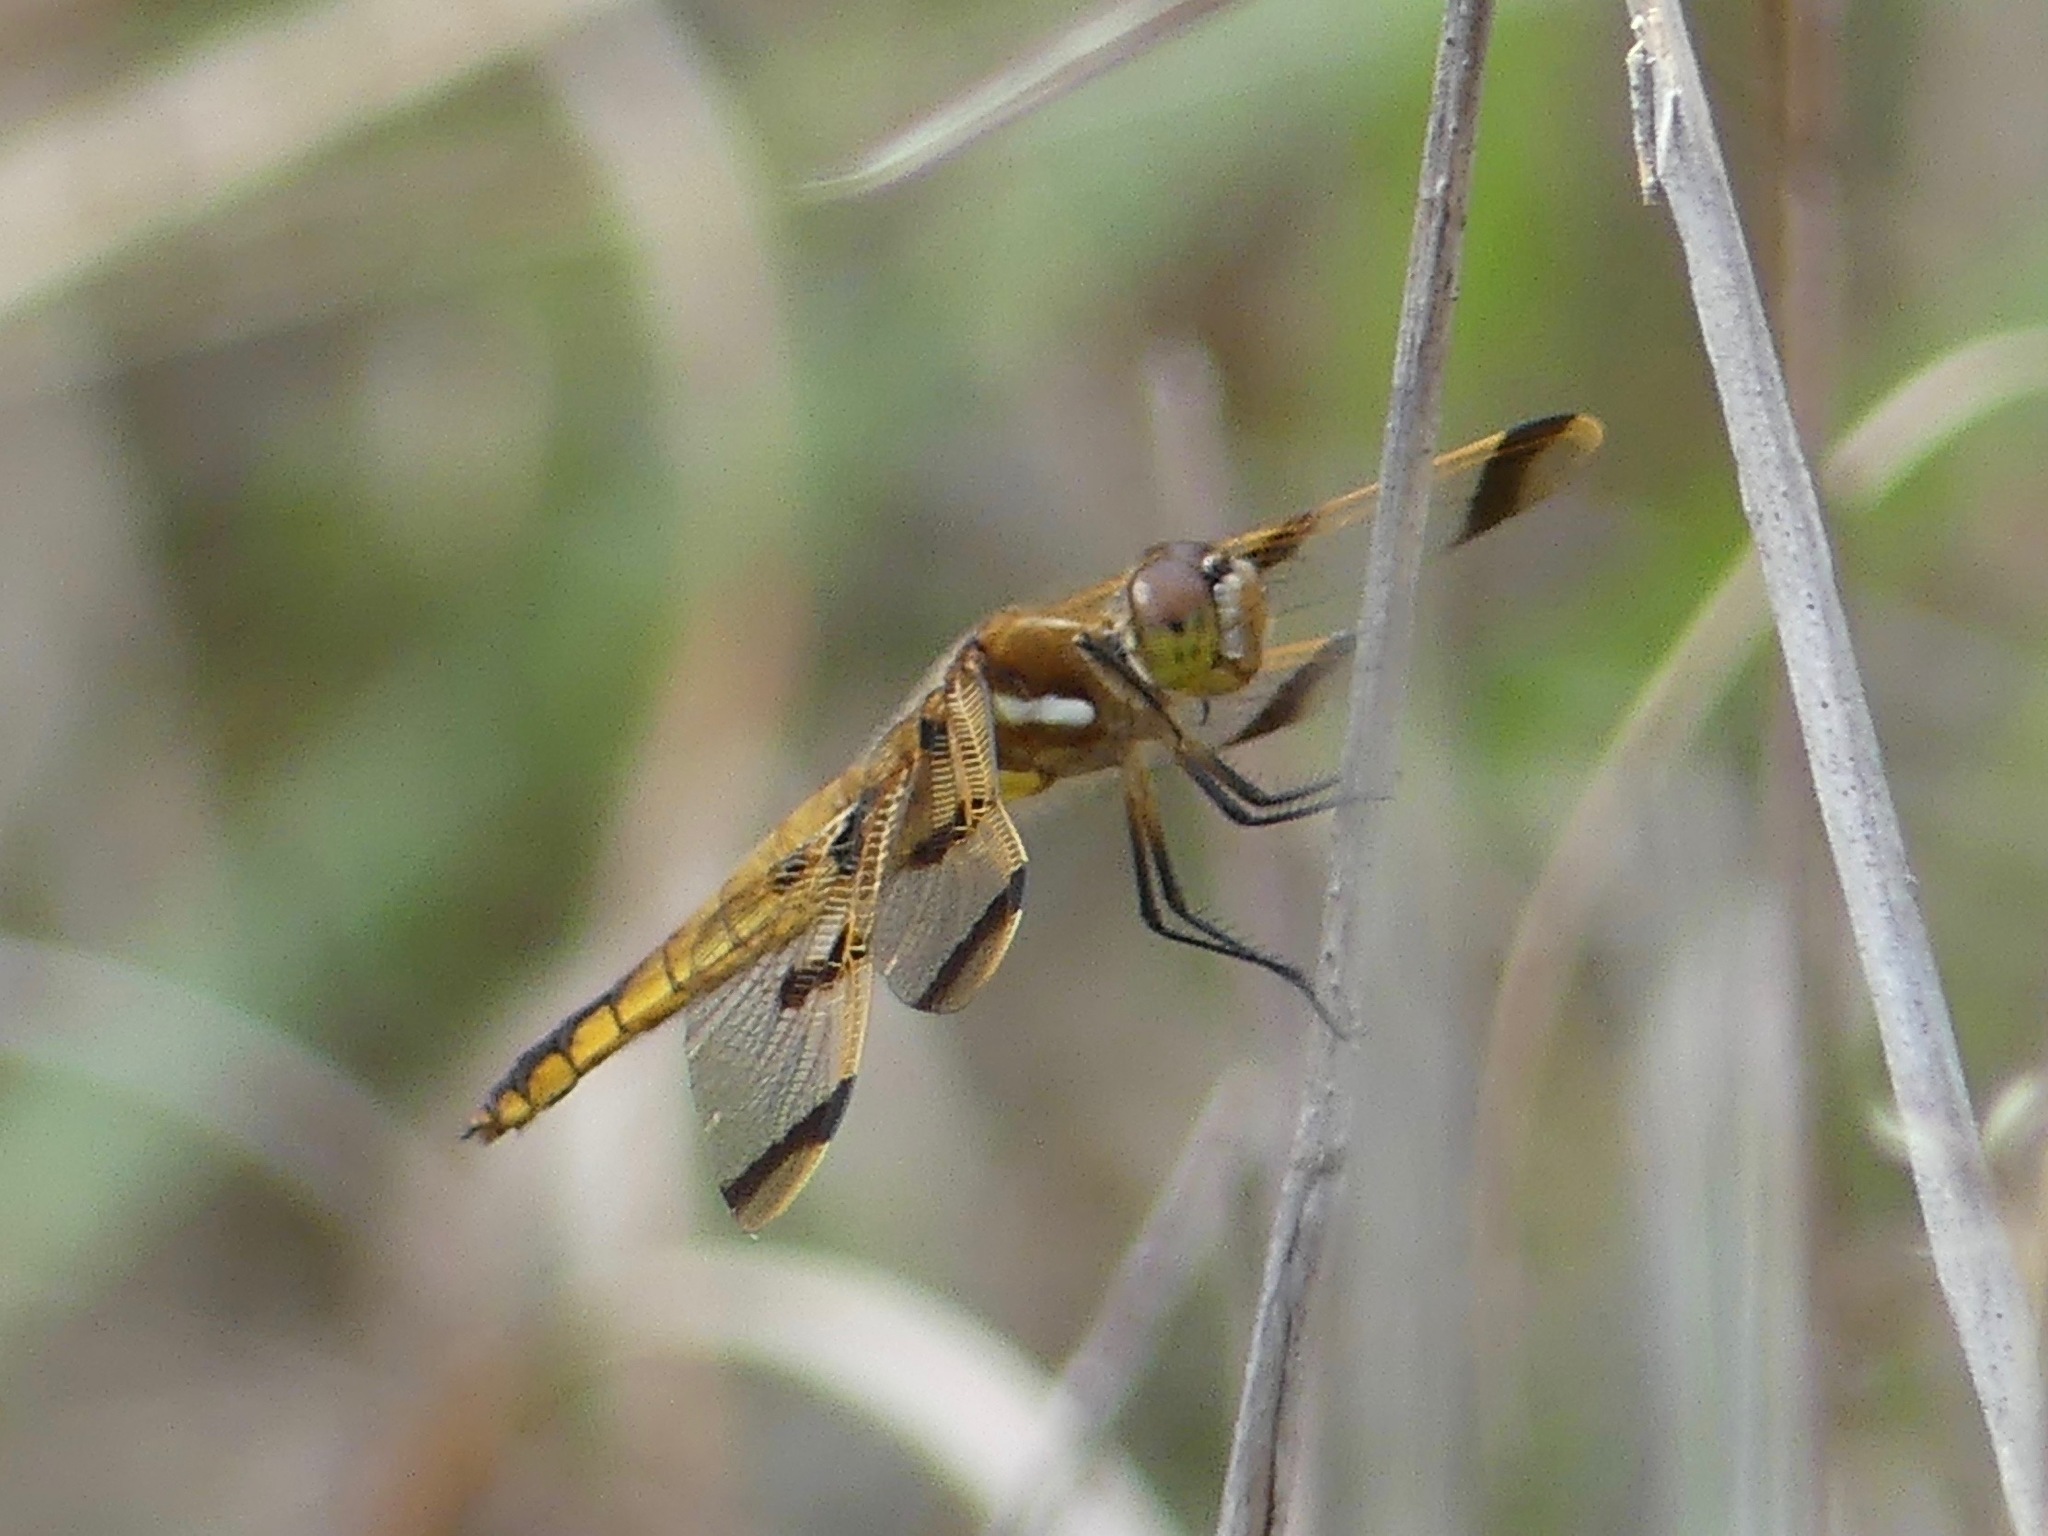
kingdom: Animalia
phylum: Arthropoda
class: Insecta
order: Odonata
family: Libellulidae
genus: Libellula
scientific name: Libellula semifasciata
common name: Painted skimmer
